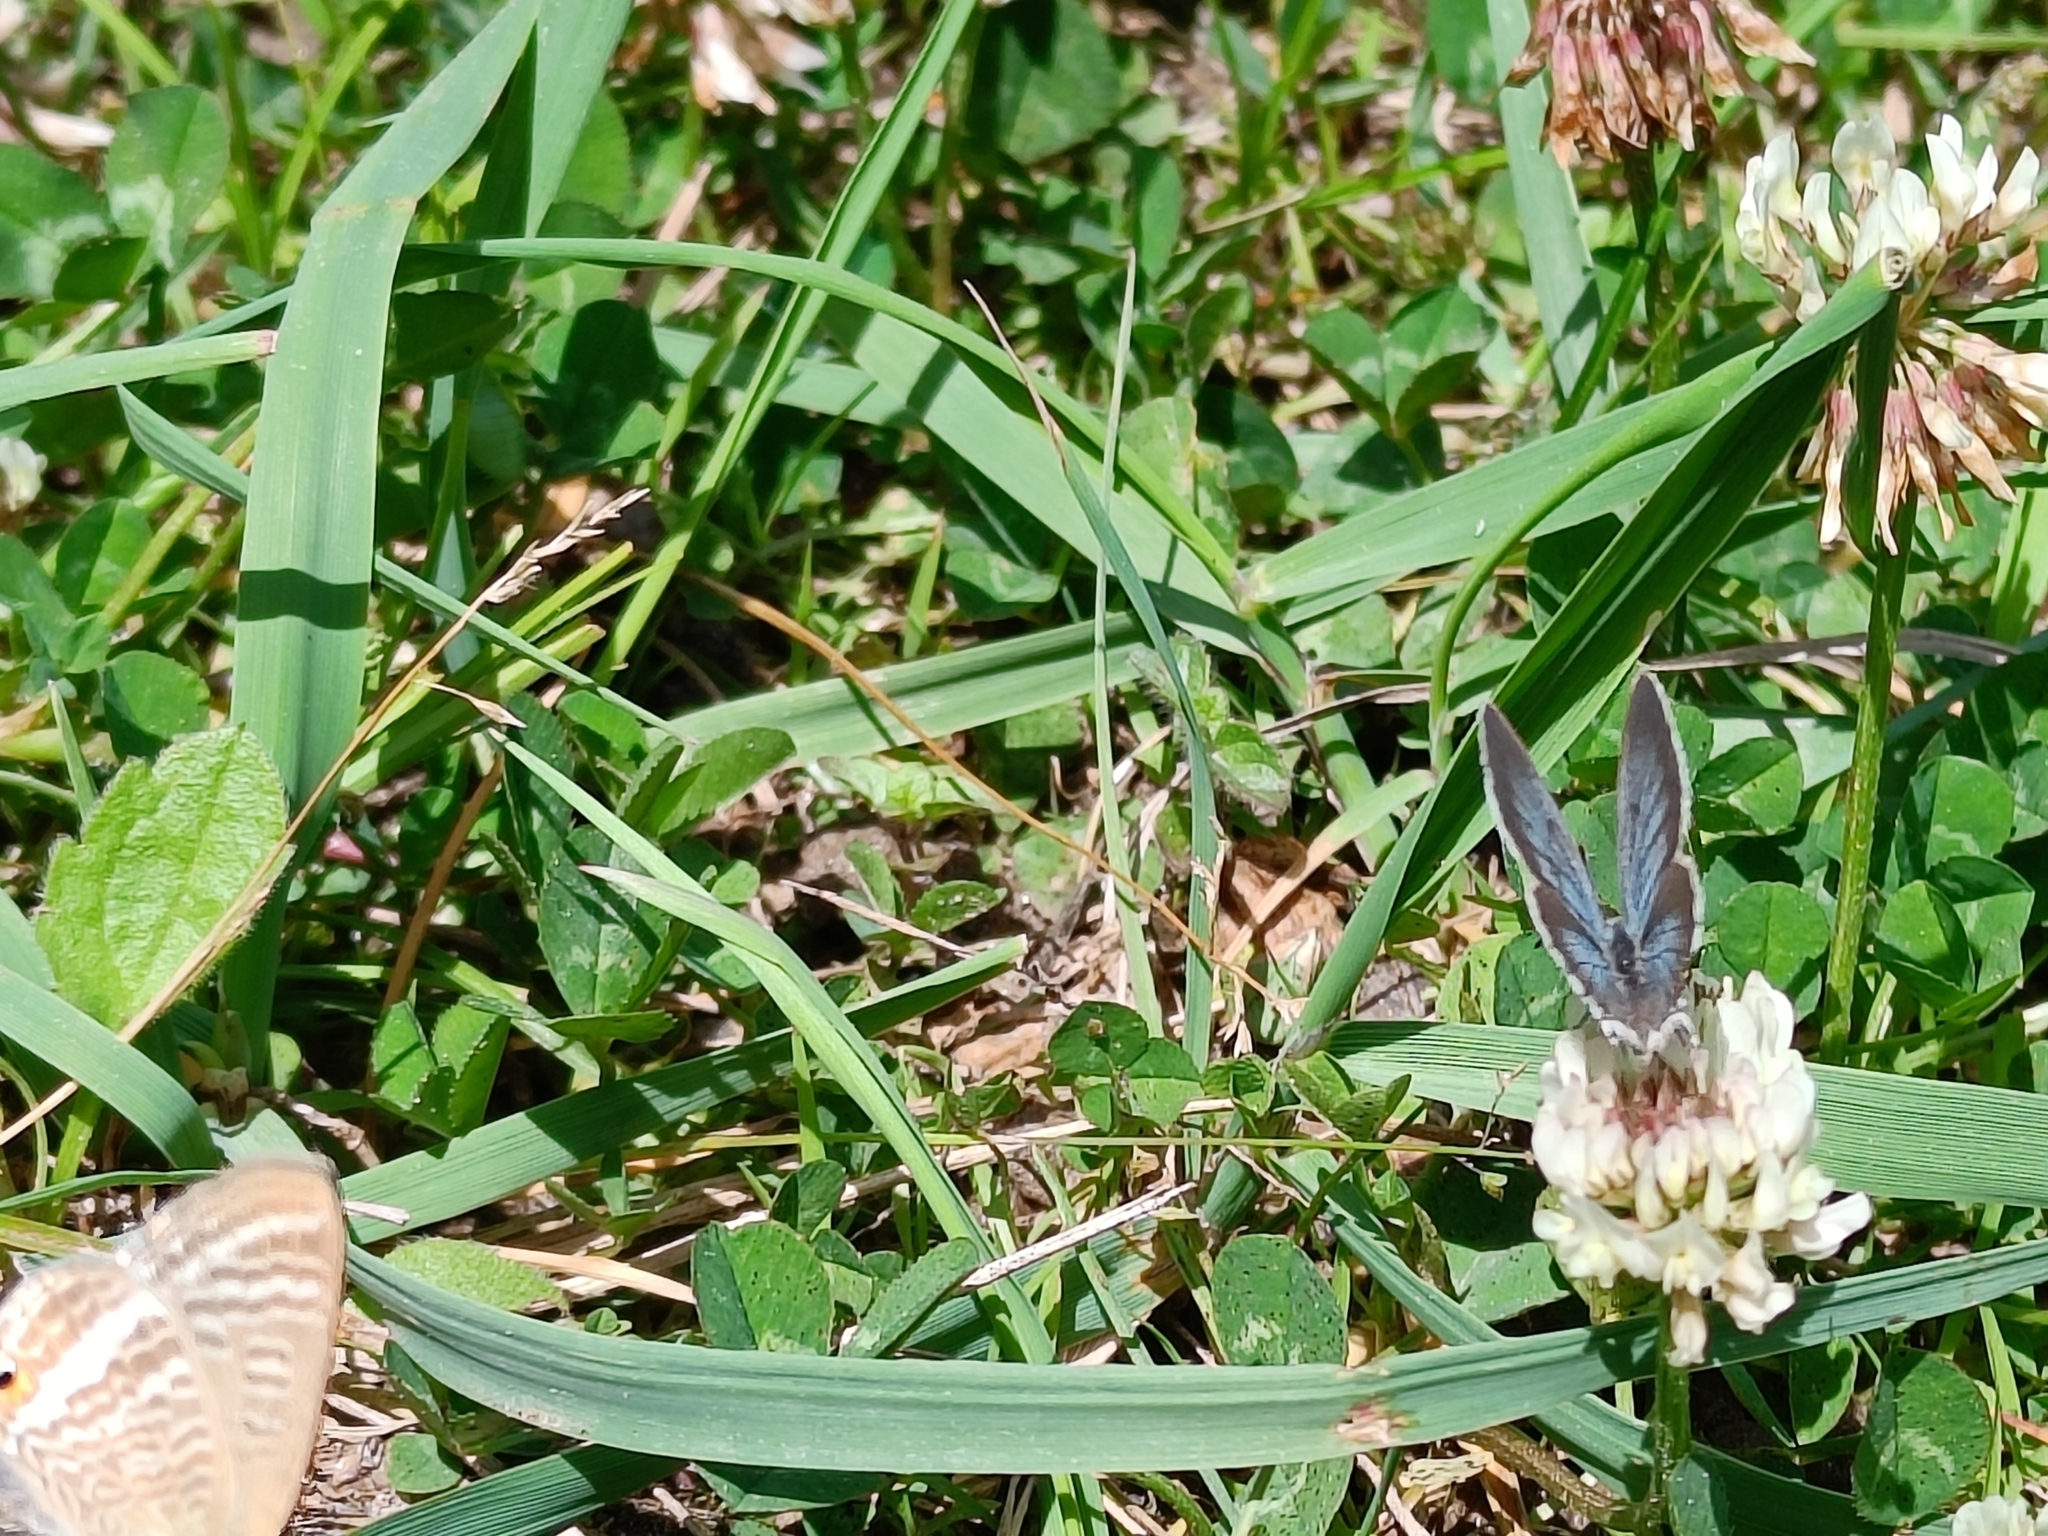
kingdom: Animalia
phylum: Arthropoda
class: Insecta
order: Lepidoptera
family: Lycaenidae
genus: Elkalyce
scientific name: Elkalyce argiades
